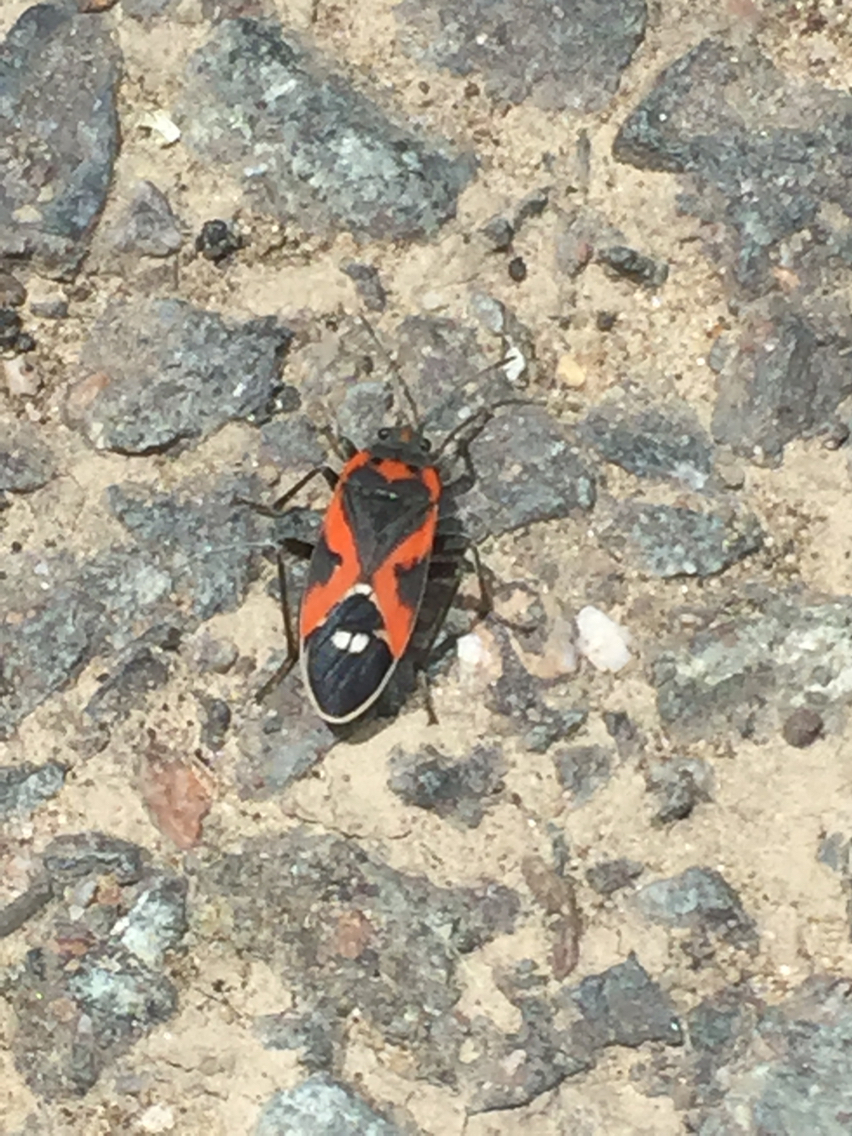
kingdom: Animalia
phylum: Arthropoda
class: Insecta
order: Hemiptera
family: Lygaeidae
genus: Lygaeus
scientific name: Lygaeus kalmii
